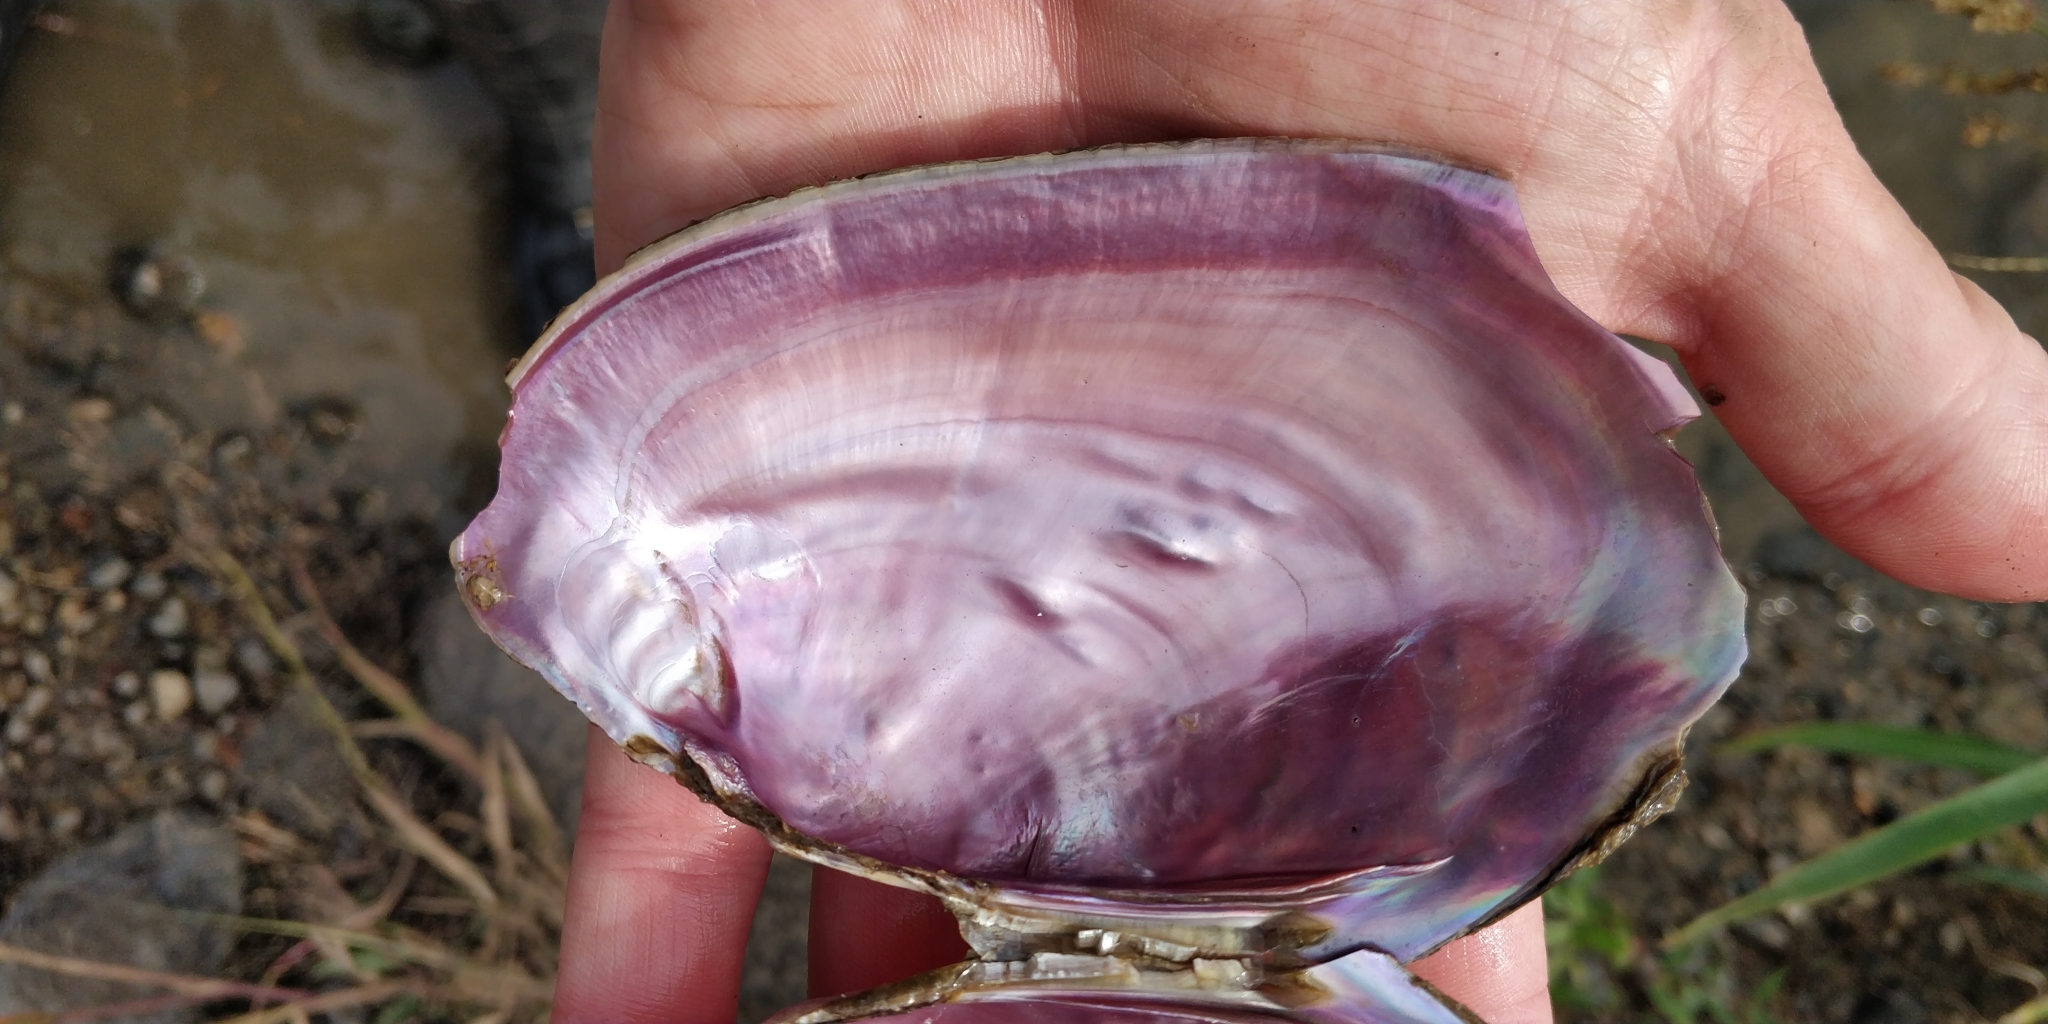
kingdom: Animalia
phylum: Mollusca
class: Bivalvia
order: Unionida
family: Unionidae
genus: Potamilus
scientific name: Potamilus ohiensis
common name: Pink papershell
